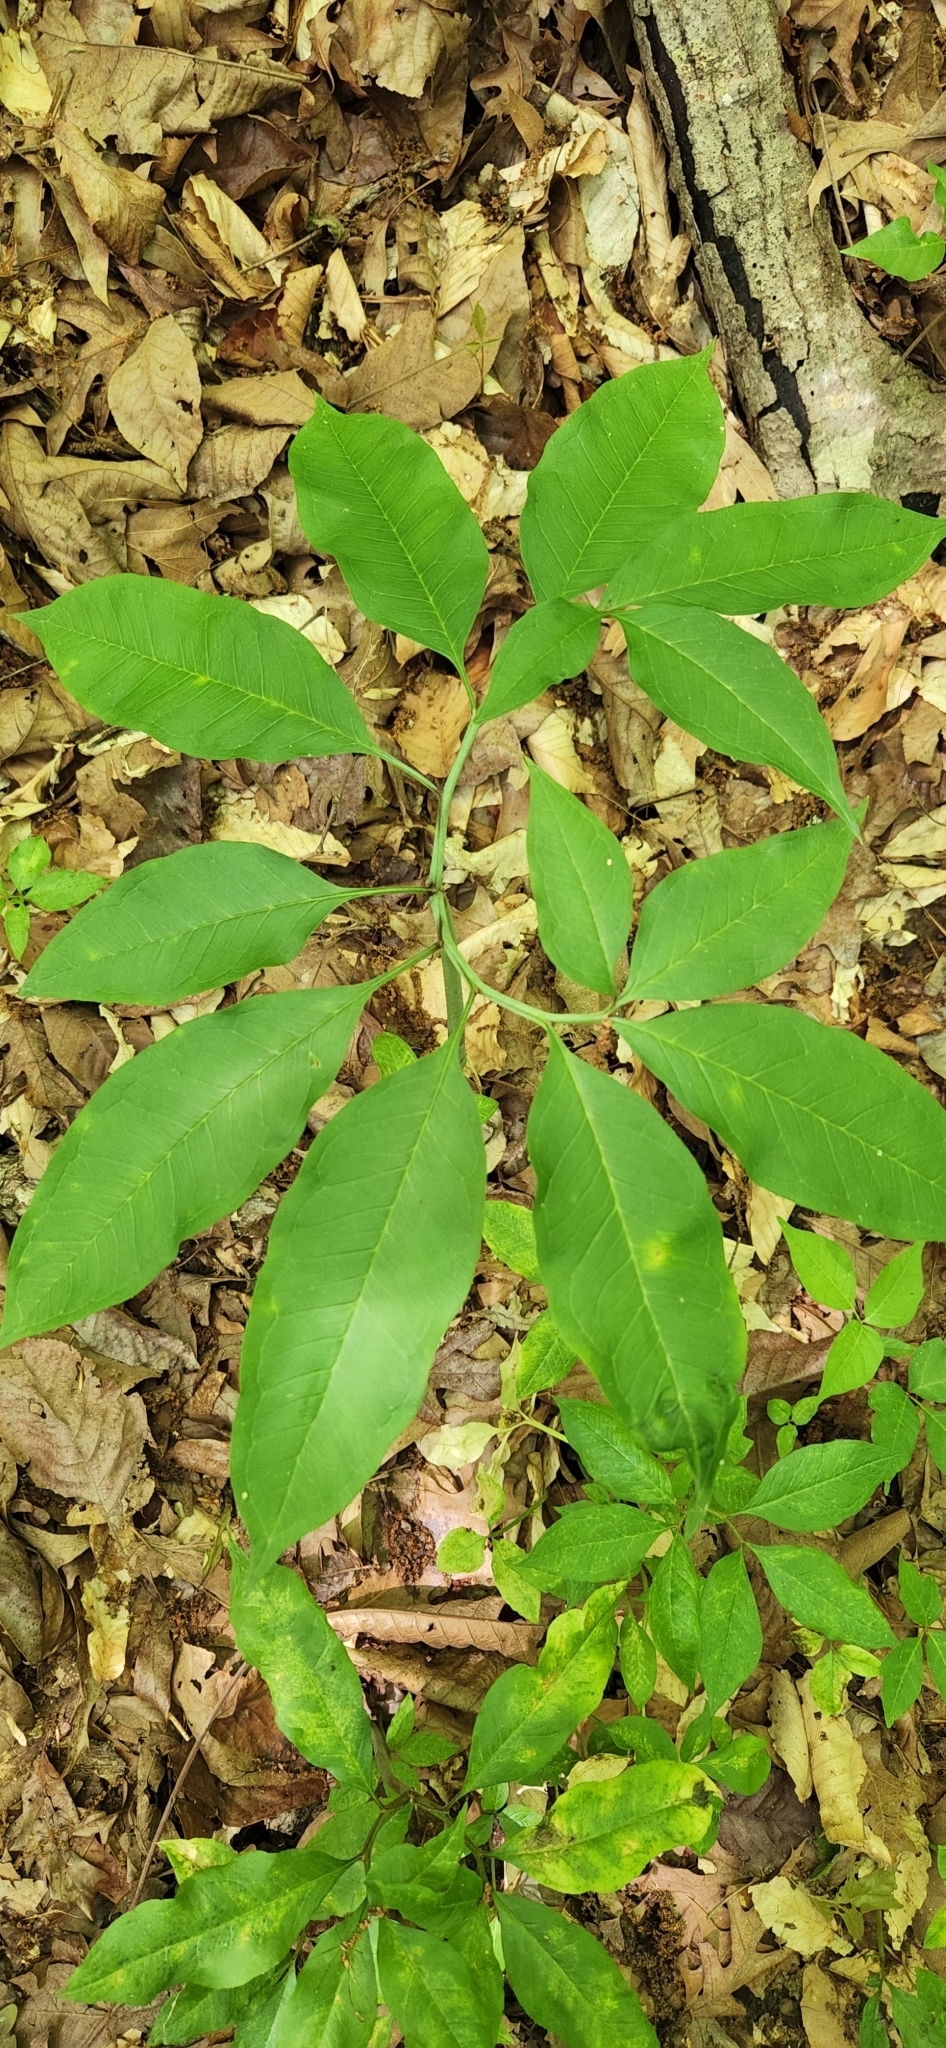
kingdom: Plantae
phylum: Tracheophyta
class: Liliopsida
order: Alismatales
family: Araceae
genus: Arisaema
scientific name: Arisaema dracontium
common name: Dragon-arum
